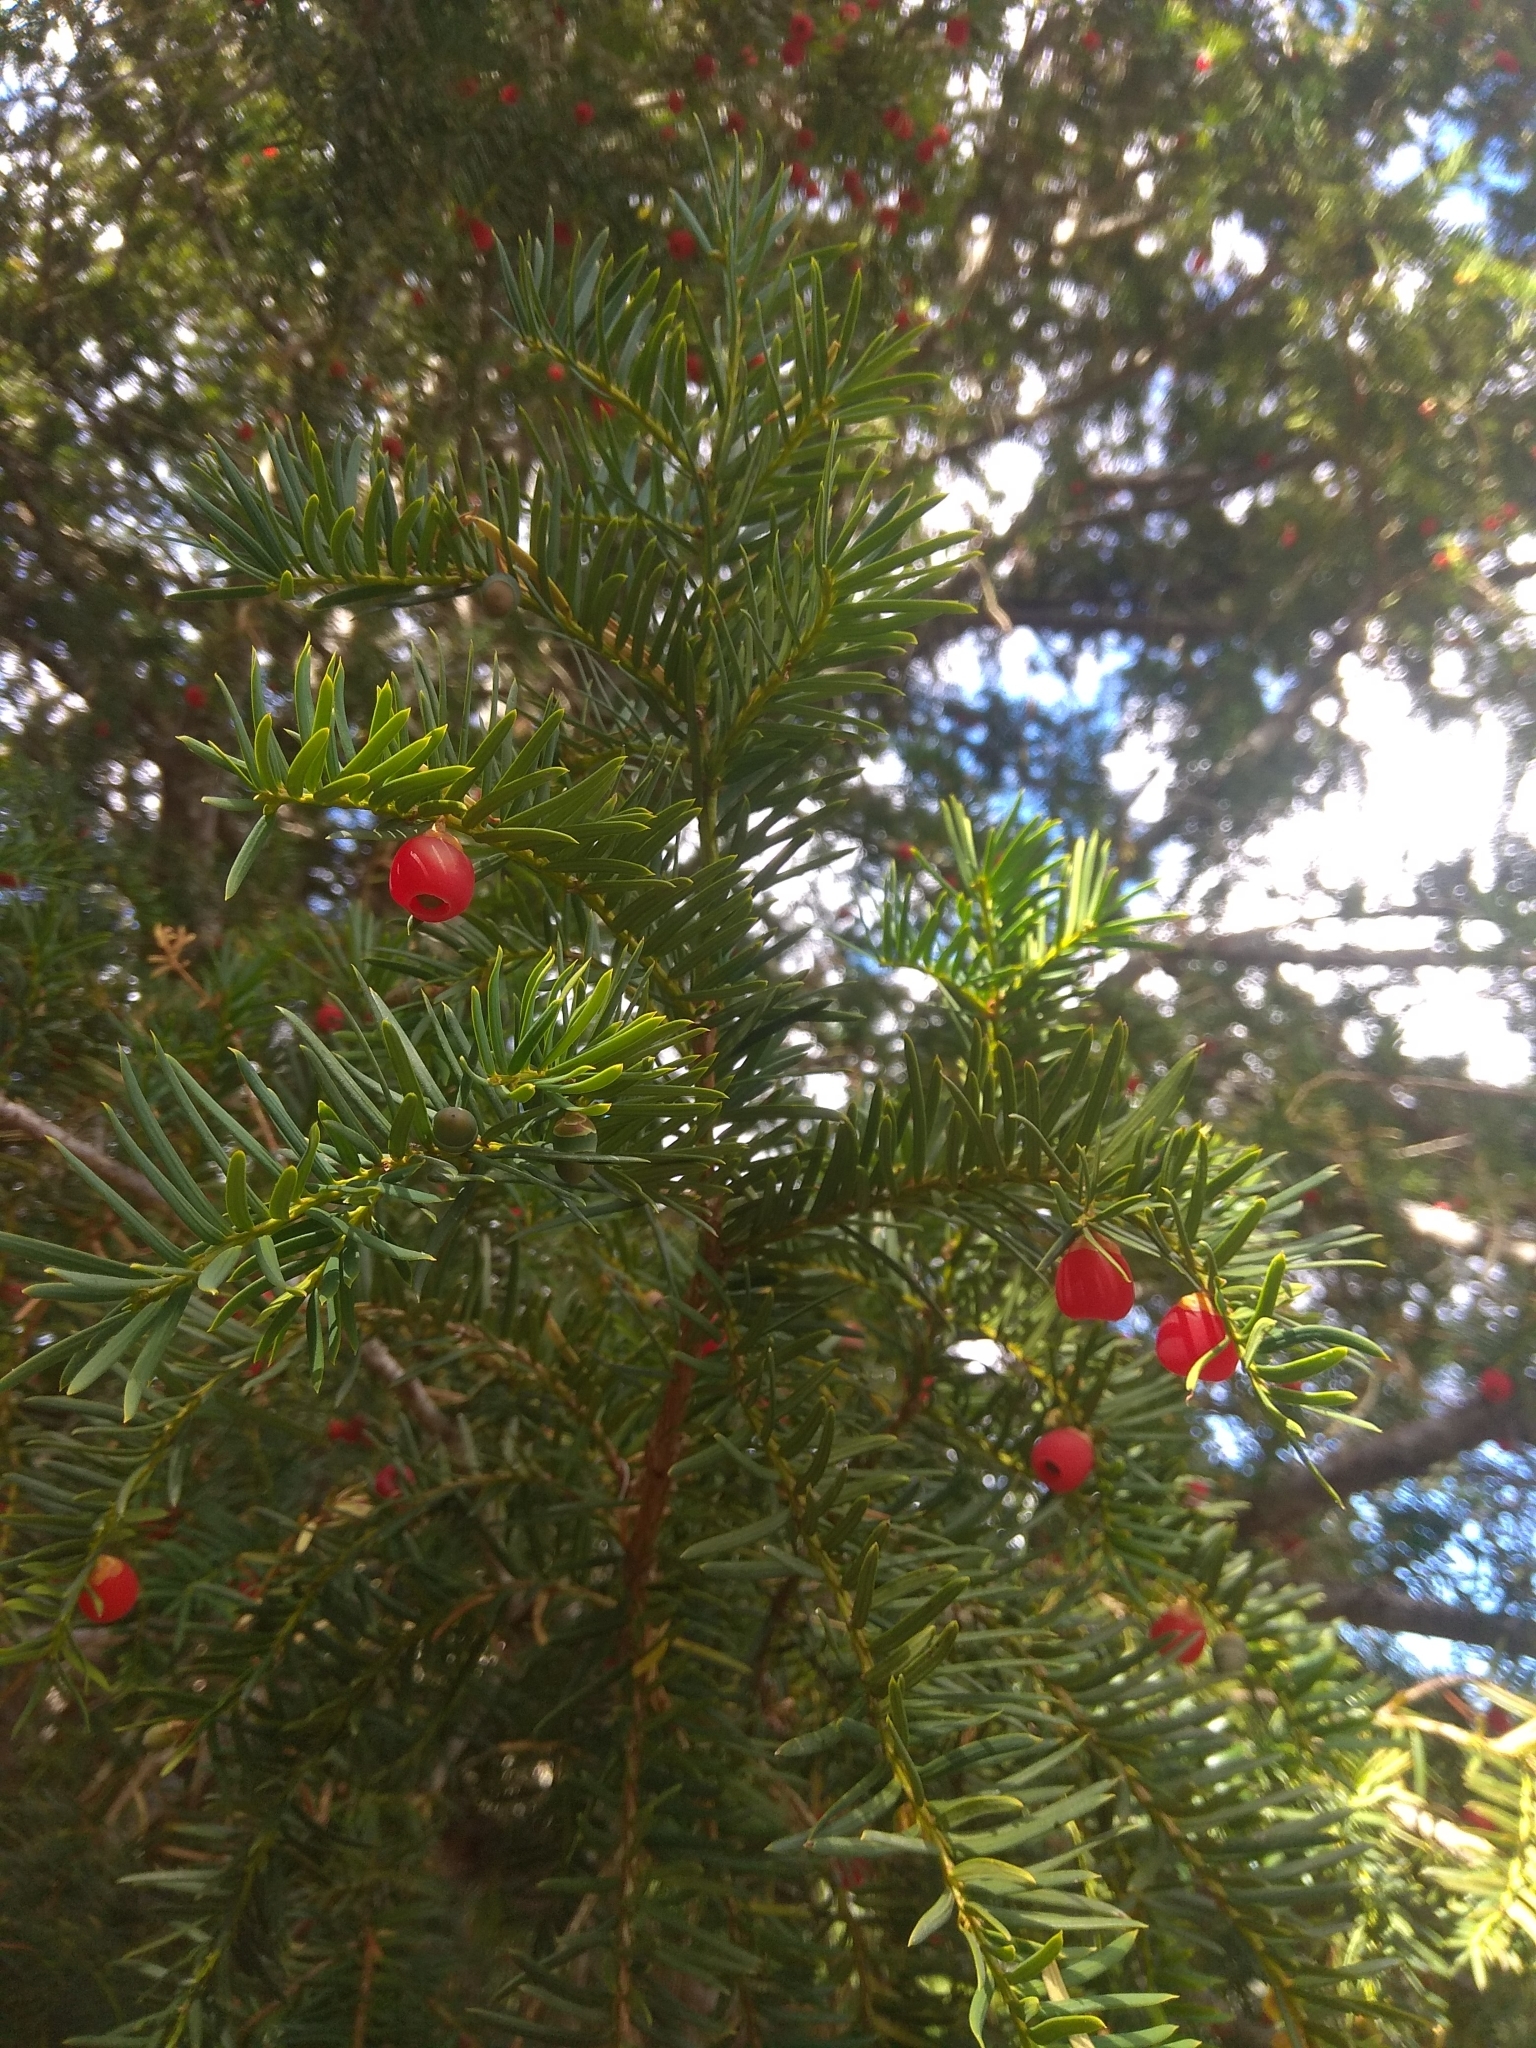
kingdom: Plantae
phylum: Tracheophyta
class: Pinopsida
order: Pinales
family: Taxaceae
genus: Taxus
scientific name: Taxus baccata
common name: Yew
